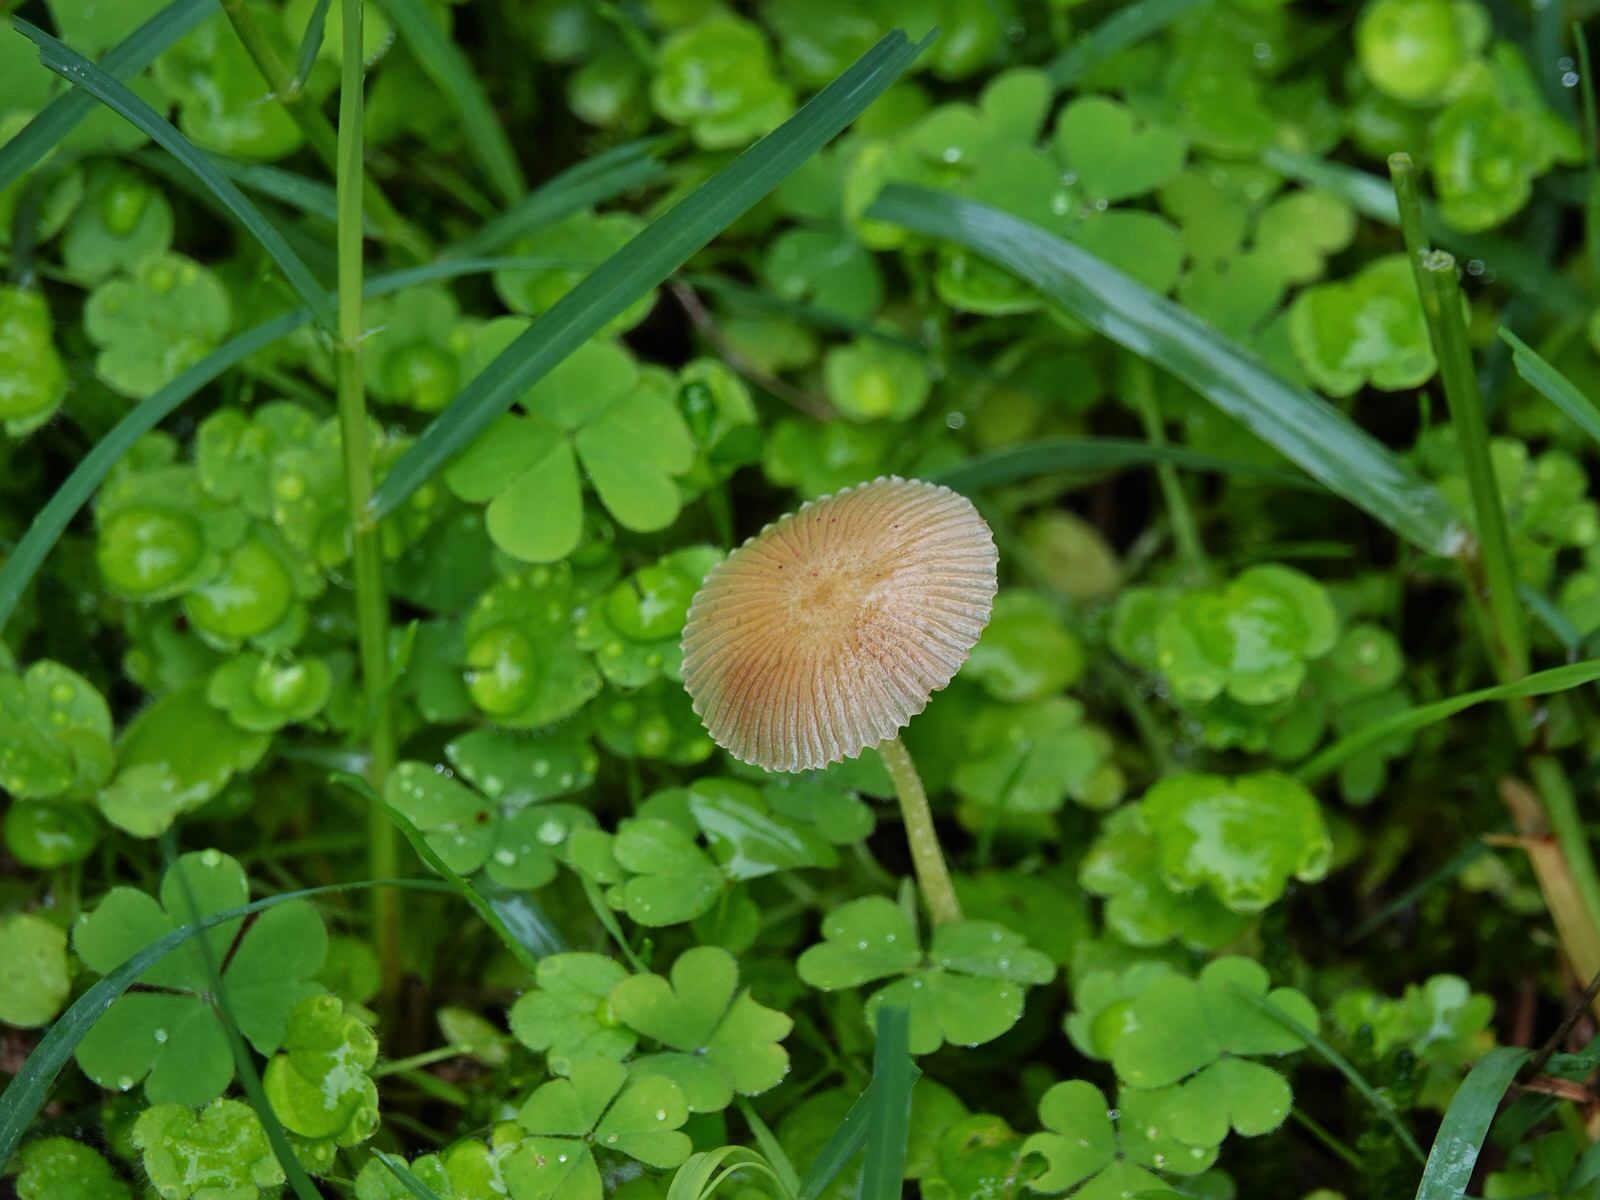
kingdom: Fungi
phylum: Basidiomycota
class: Agaricomycetes
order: Agaricales
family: Bolbitiaceae
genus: Bolbitius
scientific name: Bolbitius titubans
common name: Yellow fieldcap
